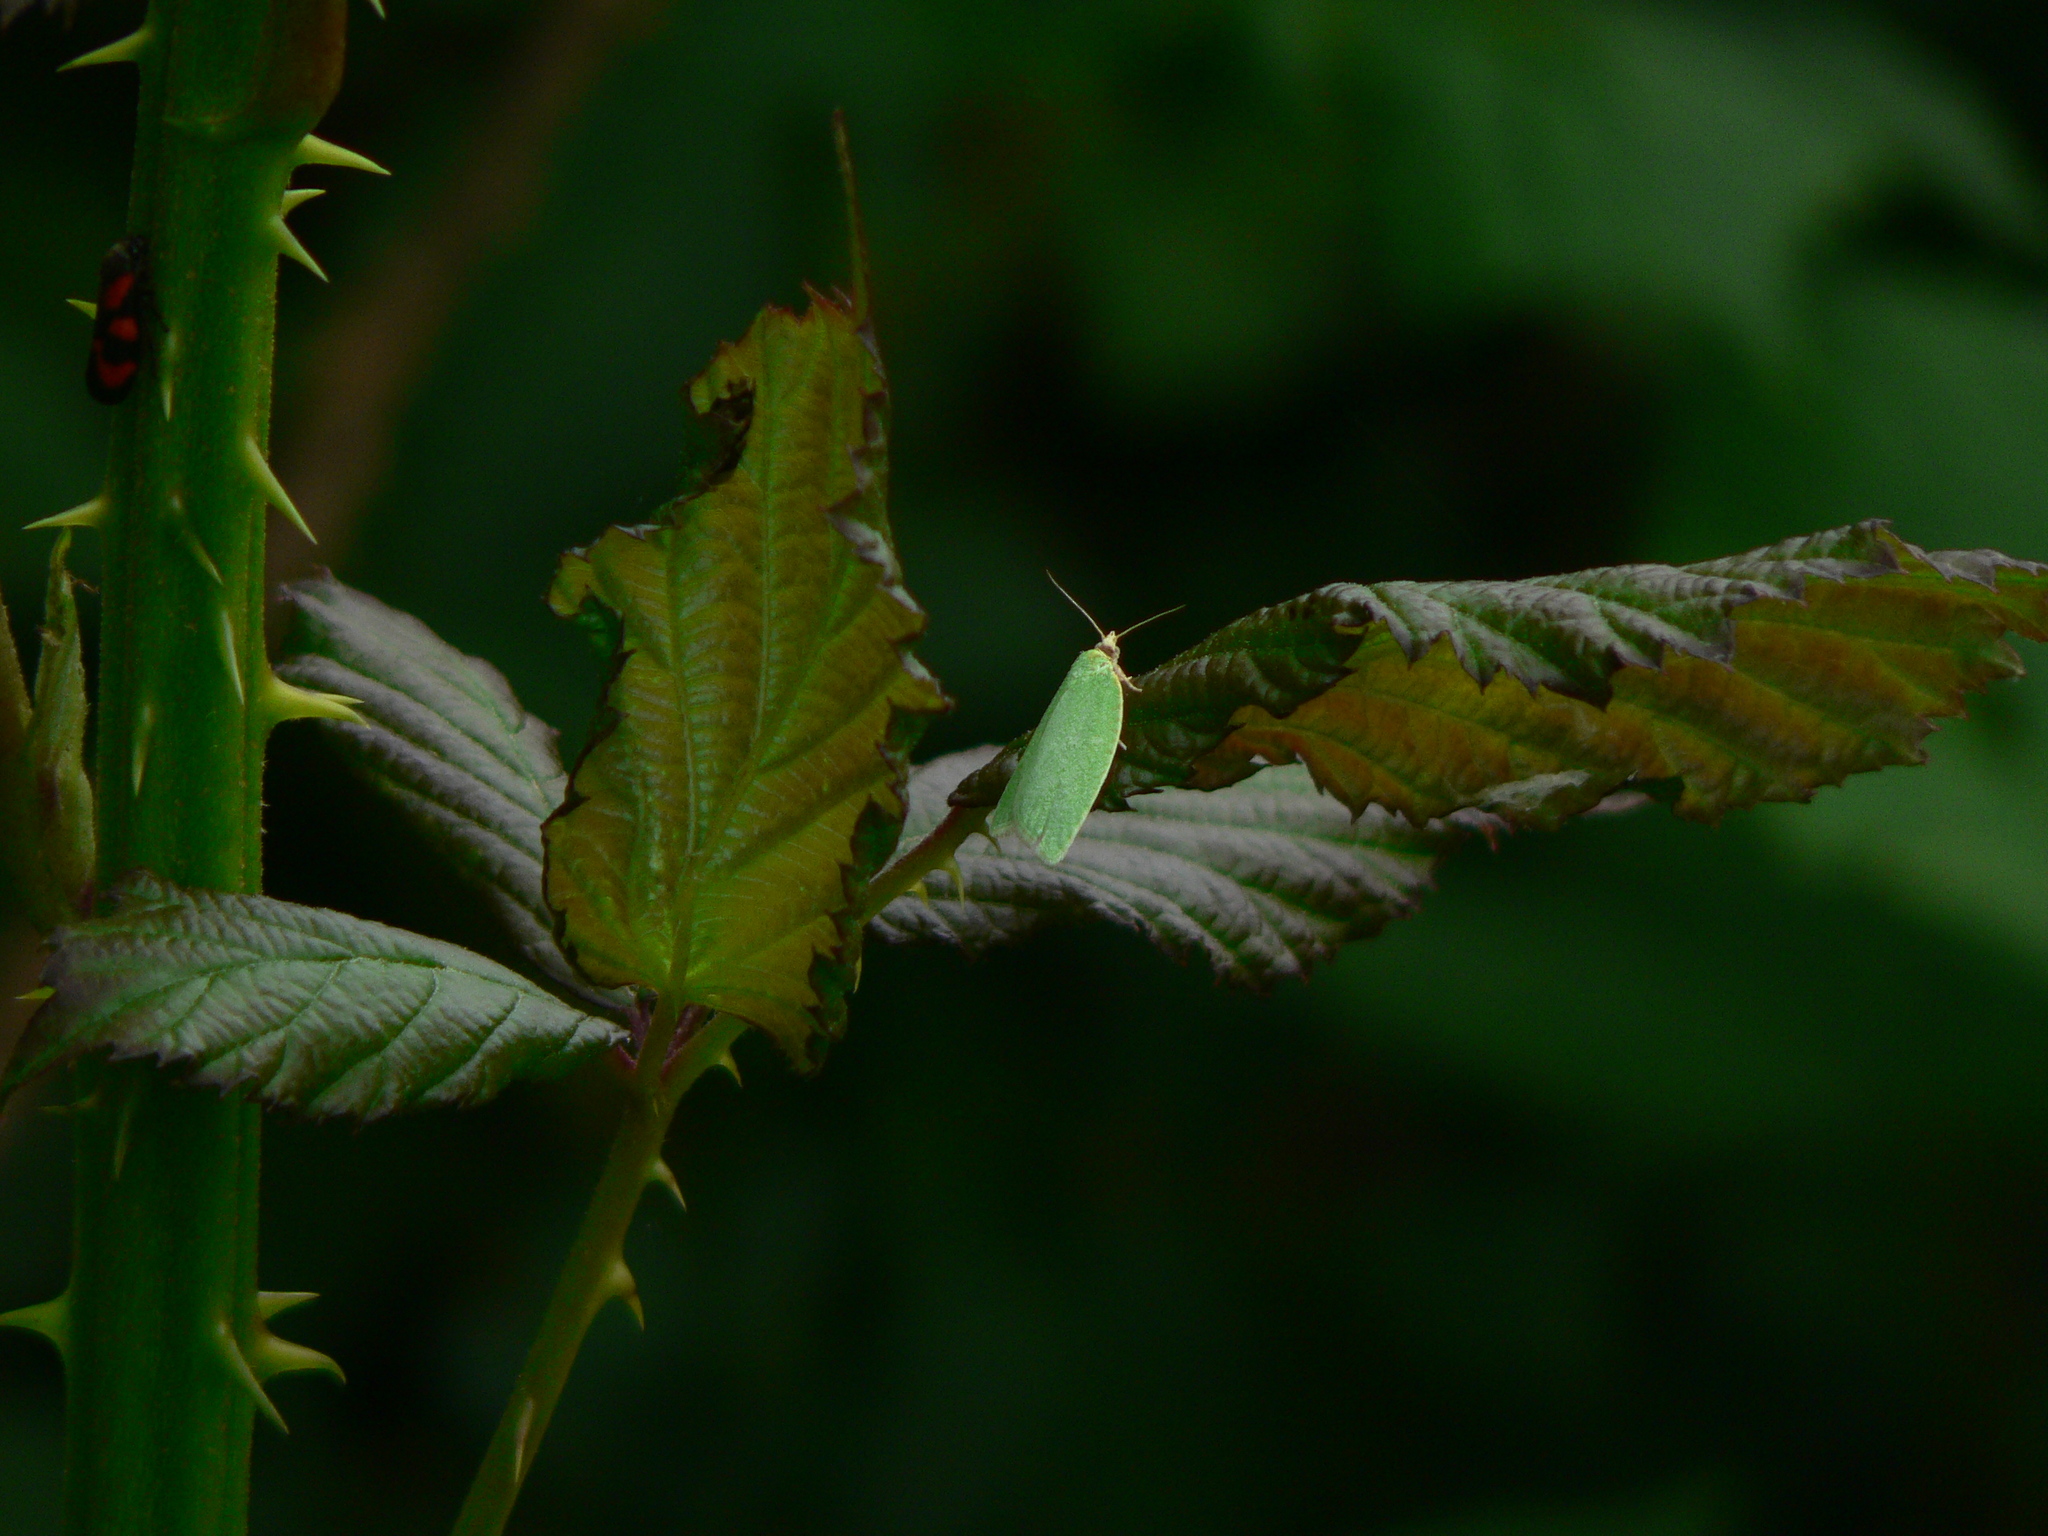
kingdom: Animalia
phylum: Arthropoda
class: Insecta
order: Lepidoptera
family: Tortricidae
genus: Tortrix
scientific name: Tortrix viridana
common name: Green oak tortrix
